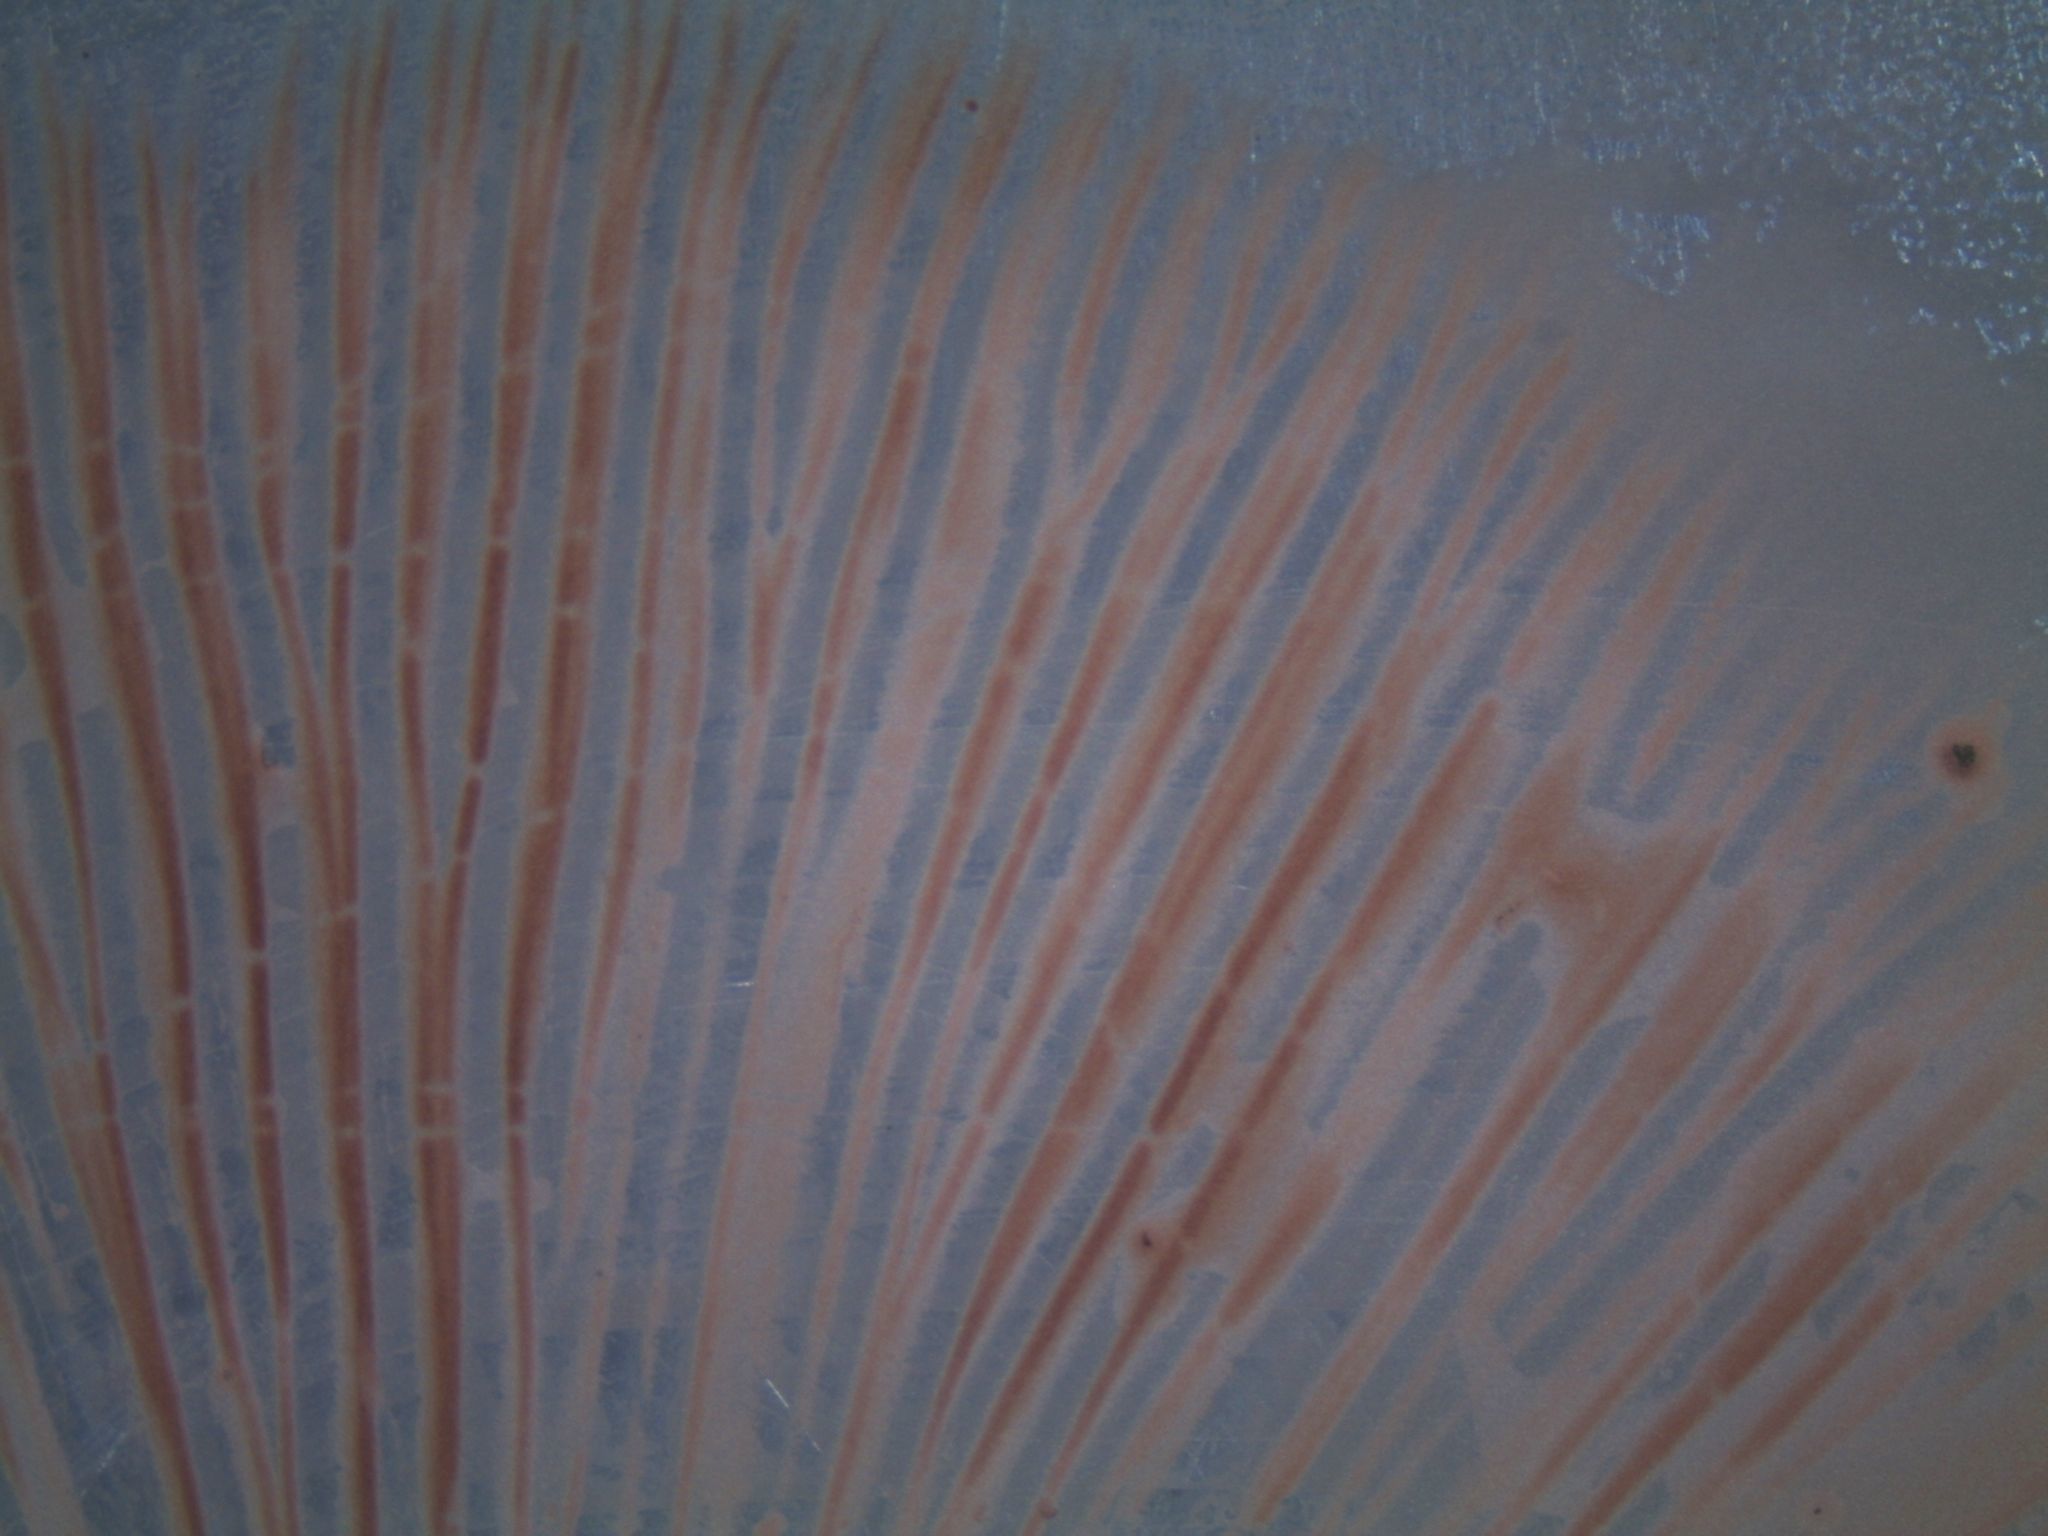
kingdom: Fungi
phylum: Basidiomycota
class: Agaricomycetes
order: Agaricales
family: Pluteaceae
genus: Pluteus
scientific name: Pluteus similis
